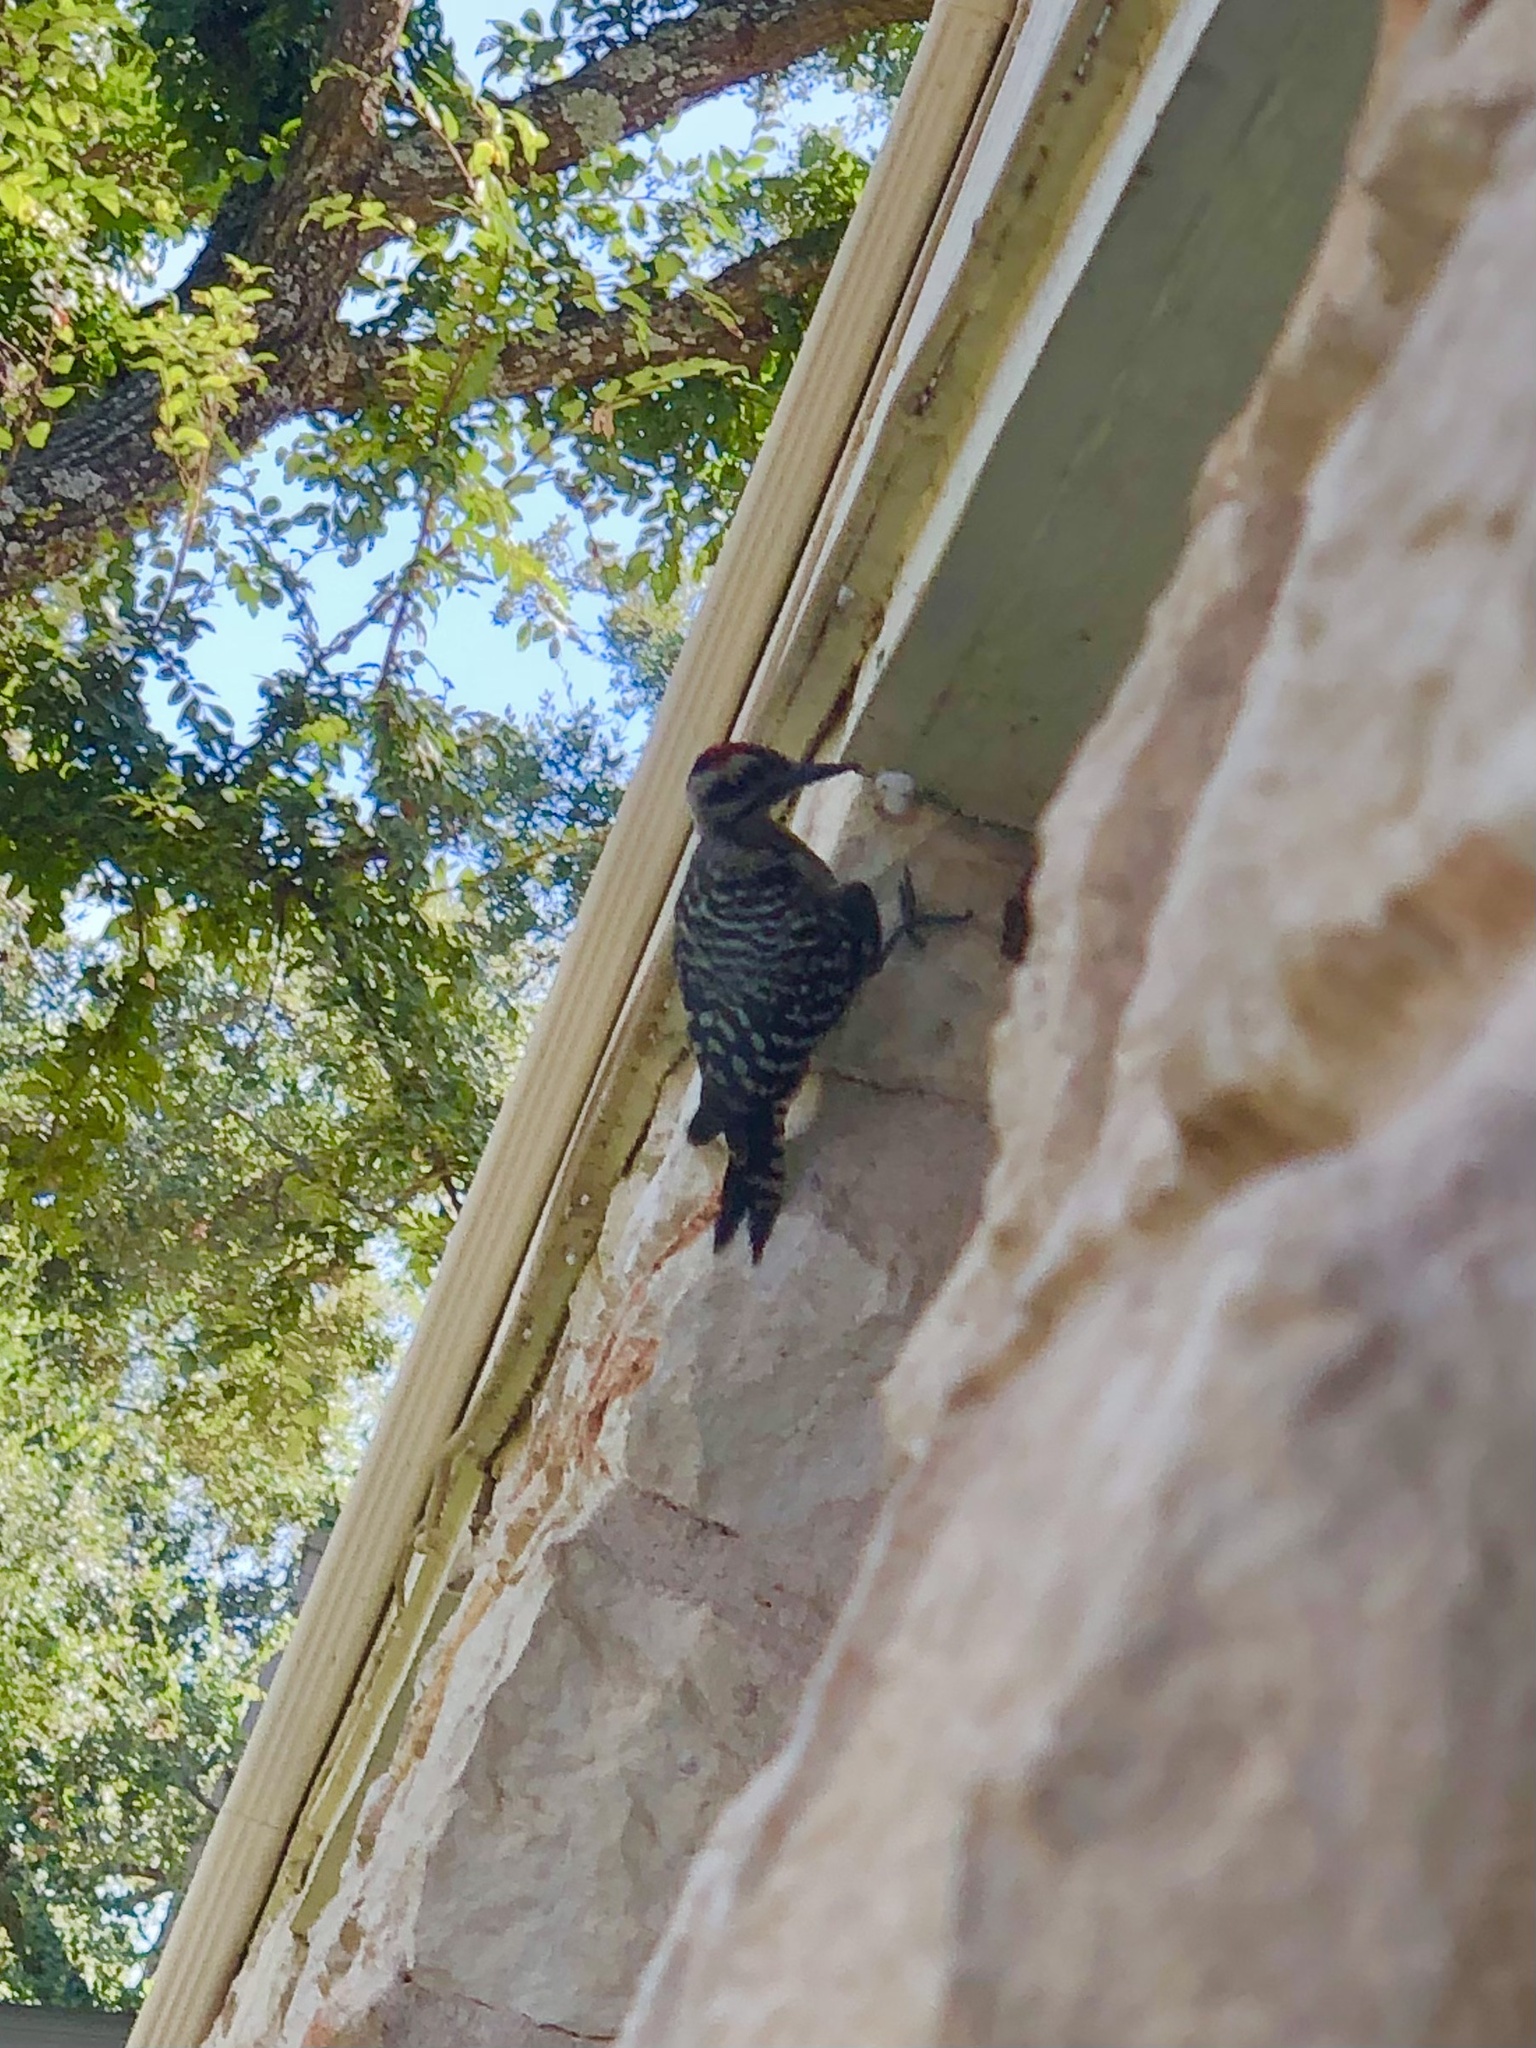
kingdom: Animalia
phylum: Chordata
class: Aves
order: Piciformes
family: Picidae
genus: Dryobates
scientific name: Dryobates scalaris
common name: Ladder-backed woodpecker
